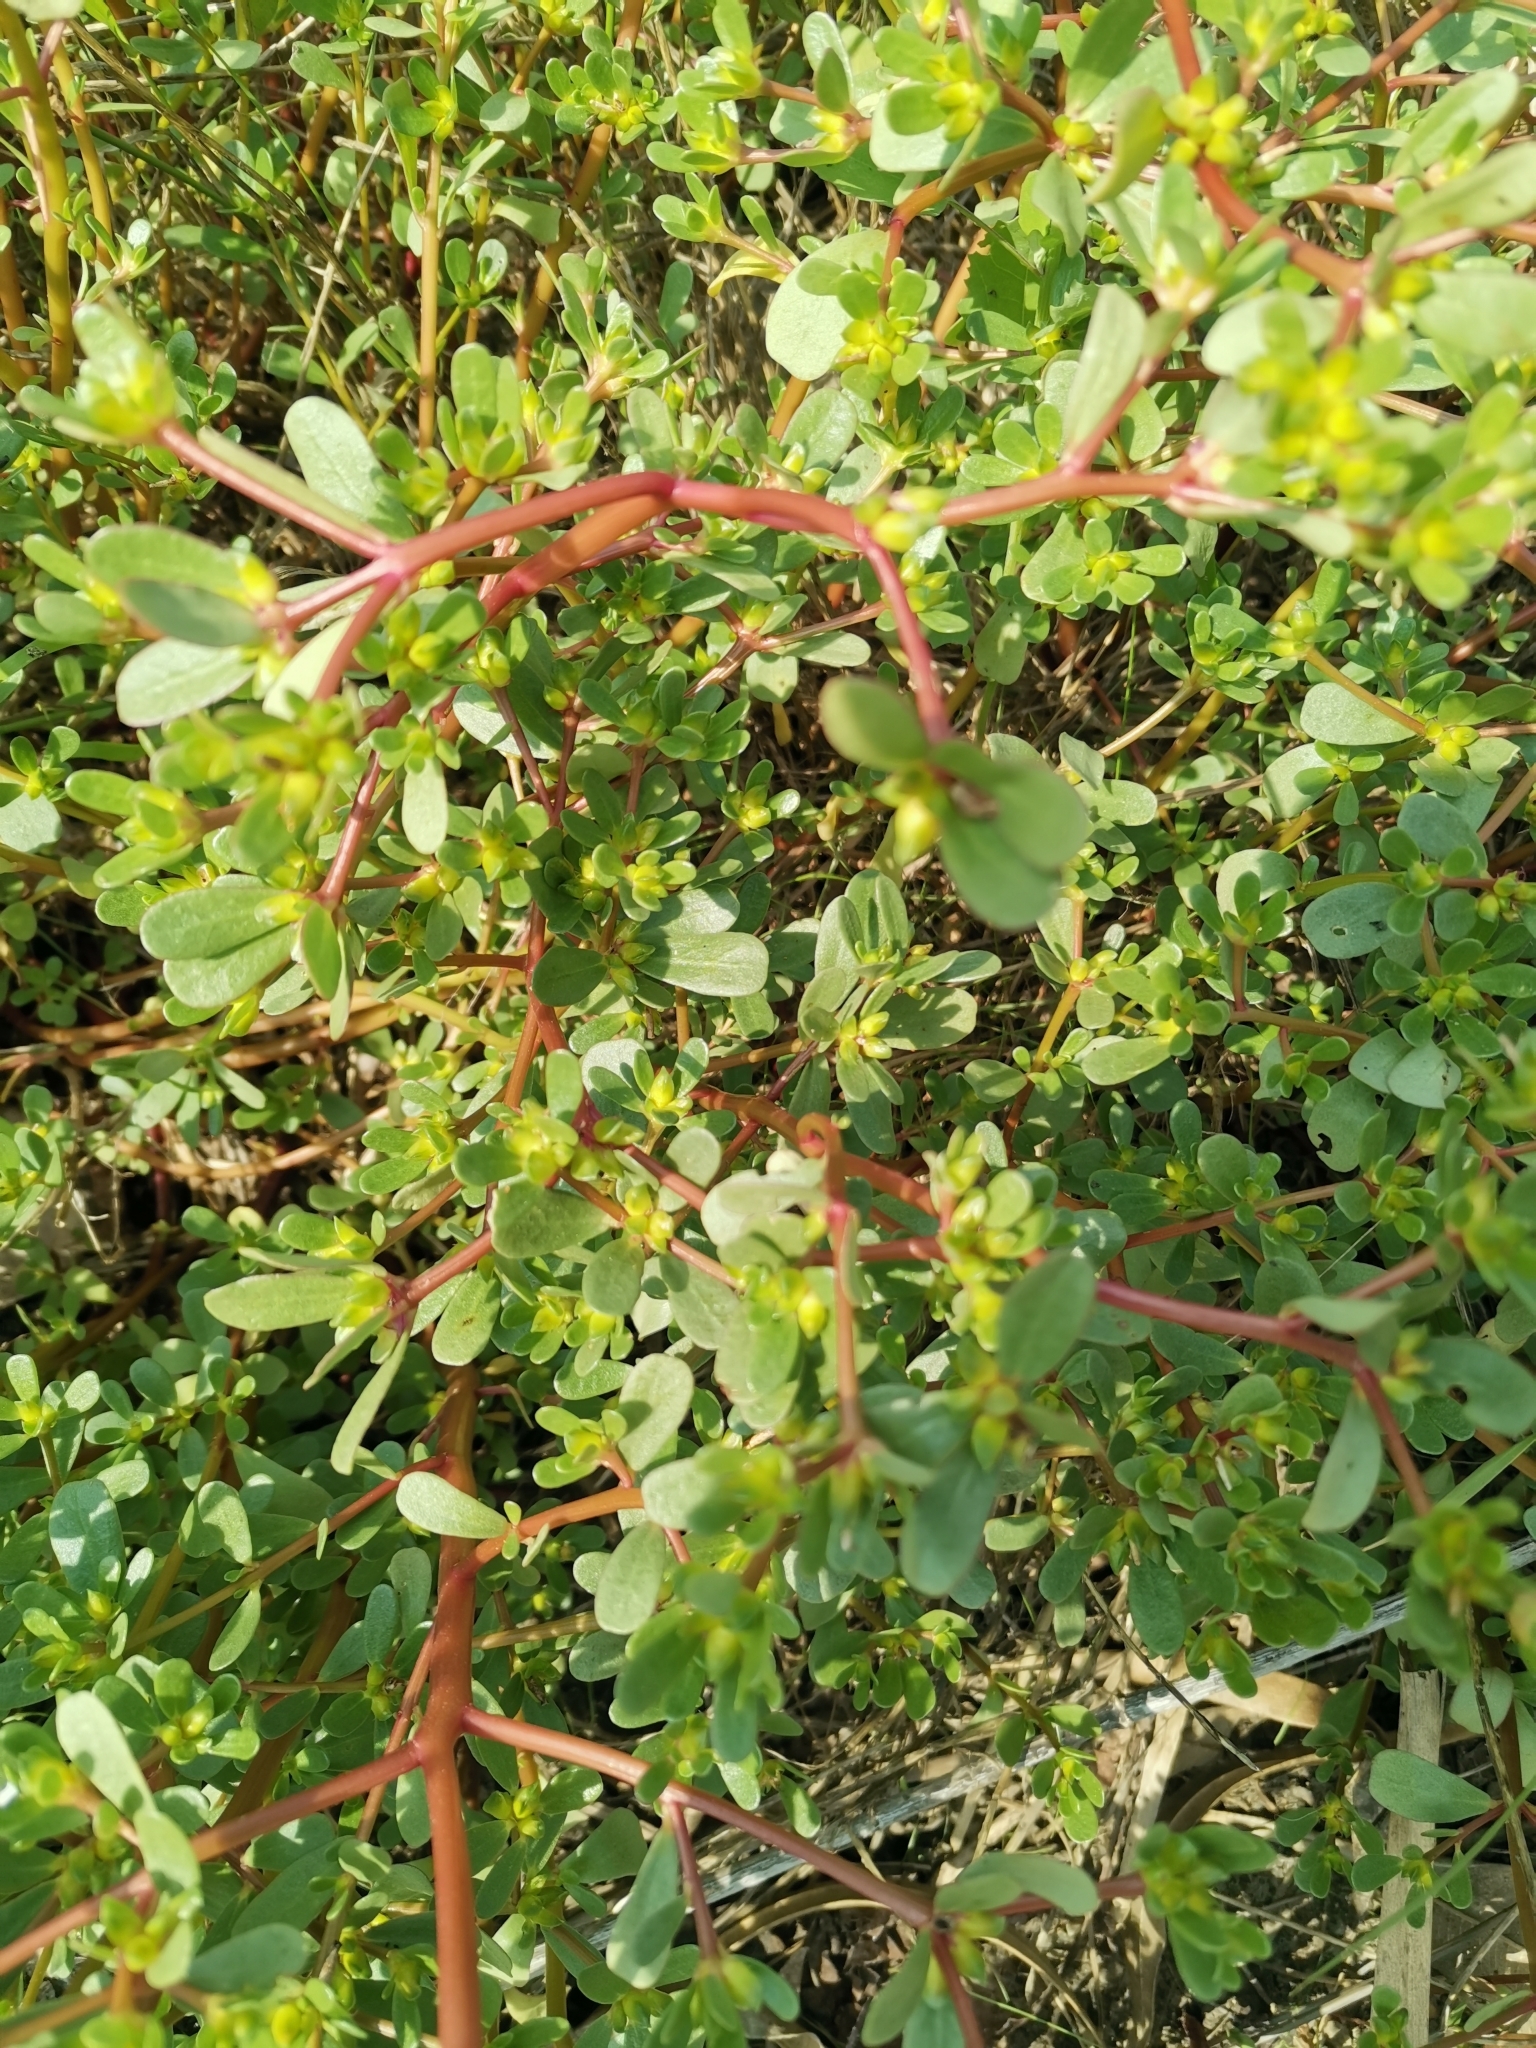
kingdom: Plantae
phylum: Tracheophyta
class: Magnoliopsida
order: Caryophyllales
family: Portulacaceae
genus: Portulaca
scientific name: Portulaca oleracea
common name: Common purslane
